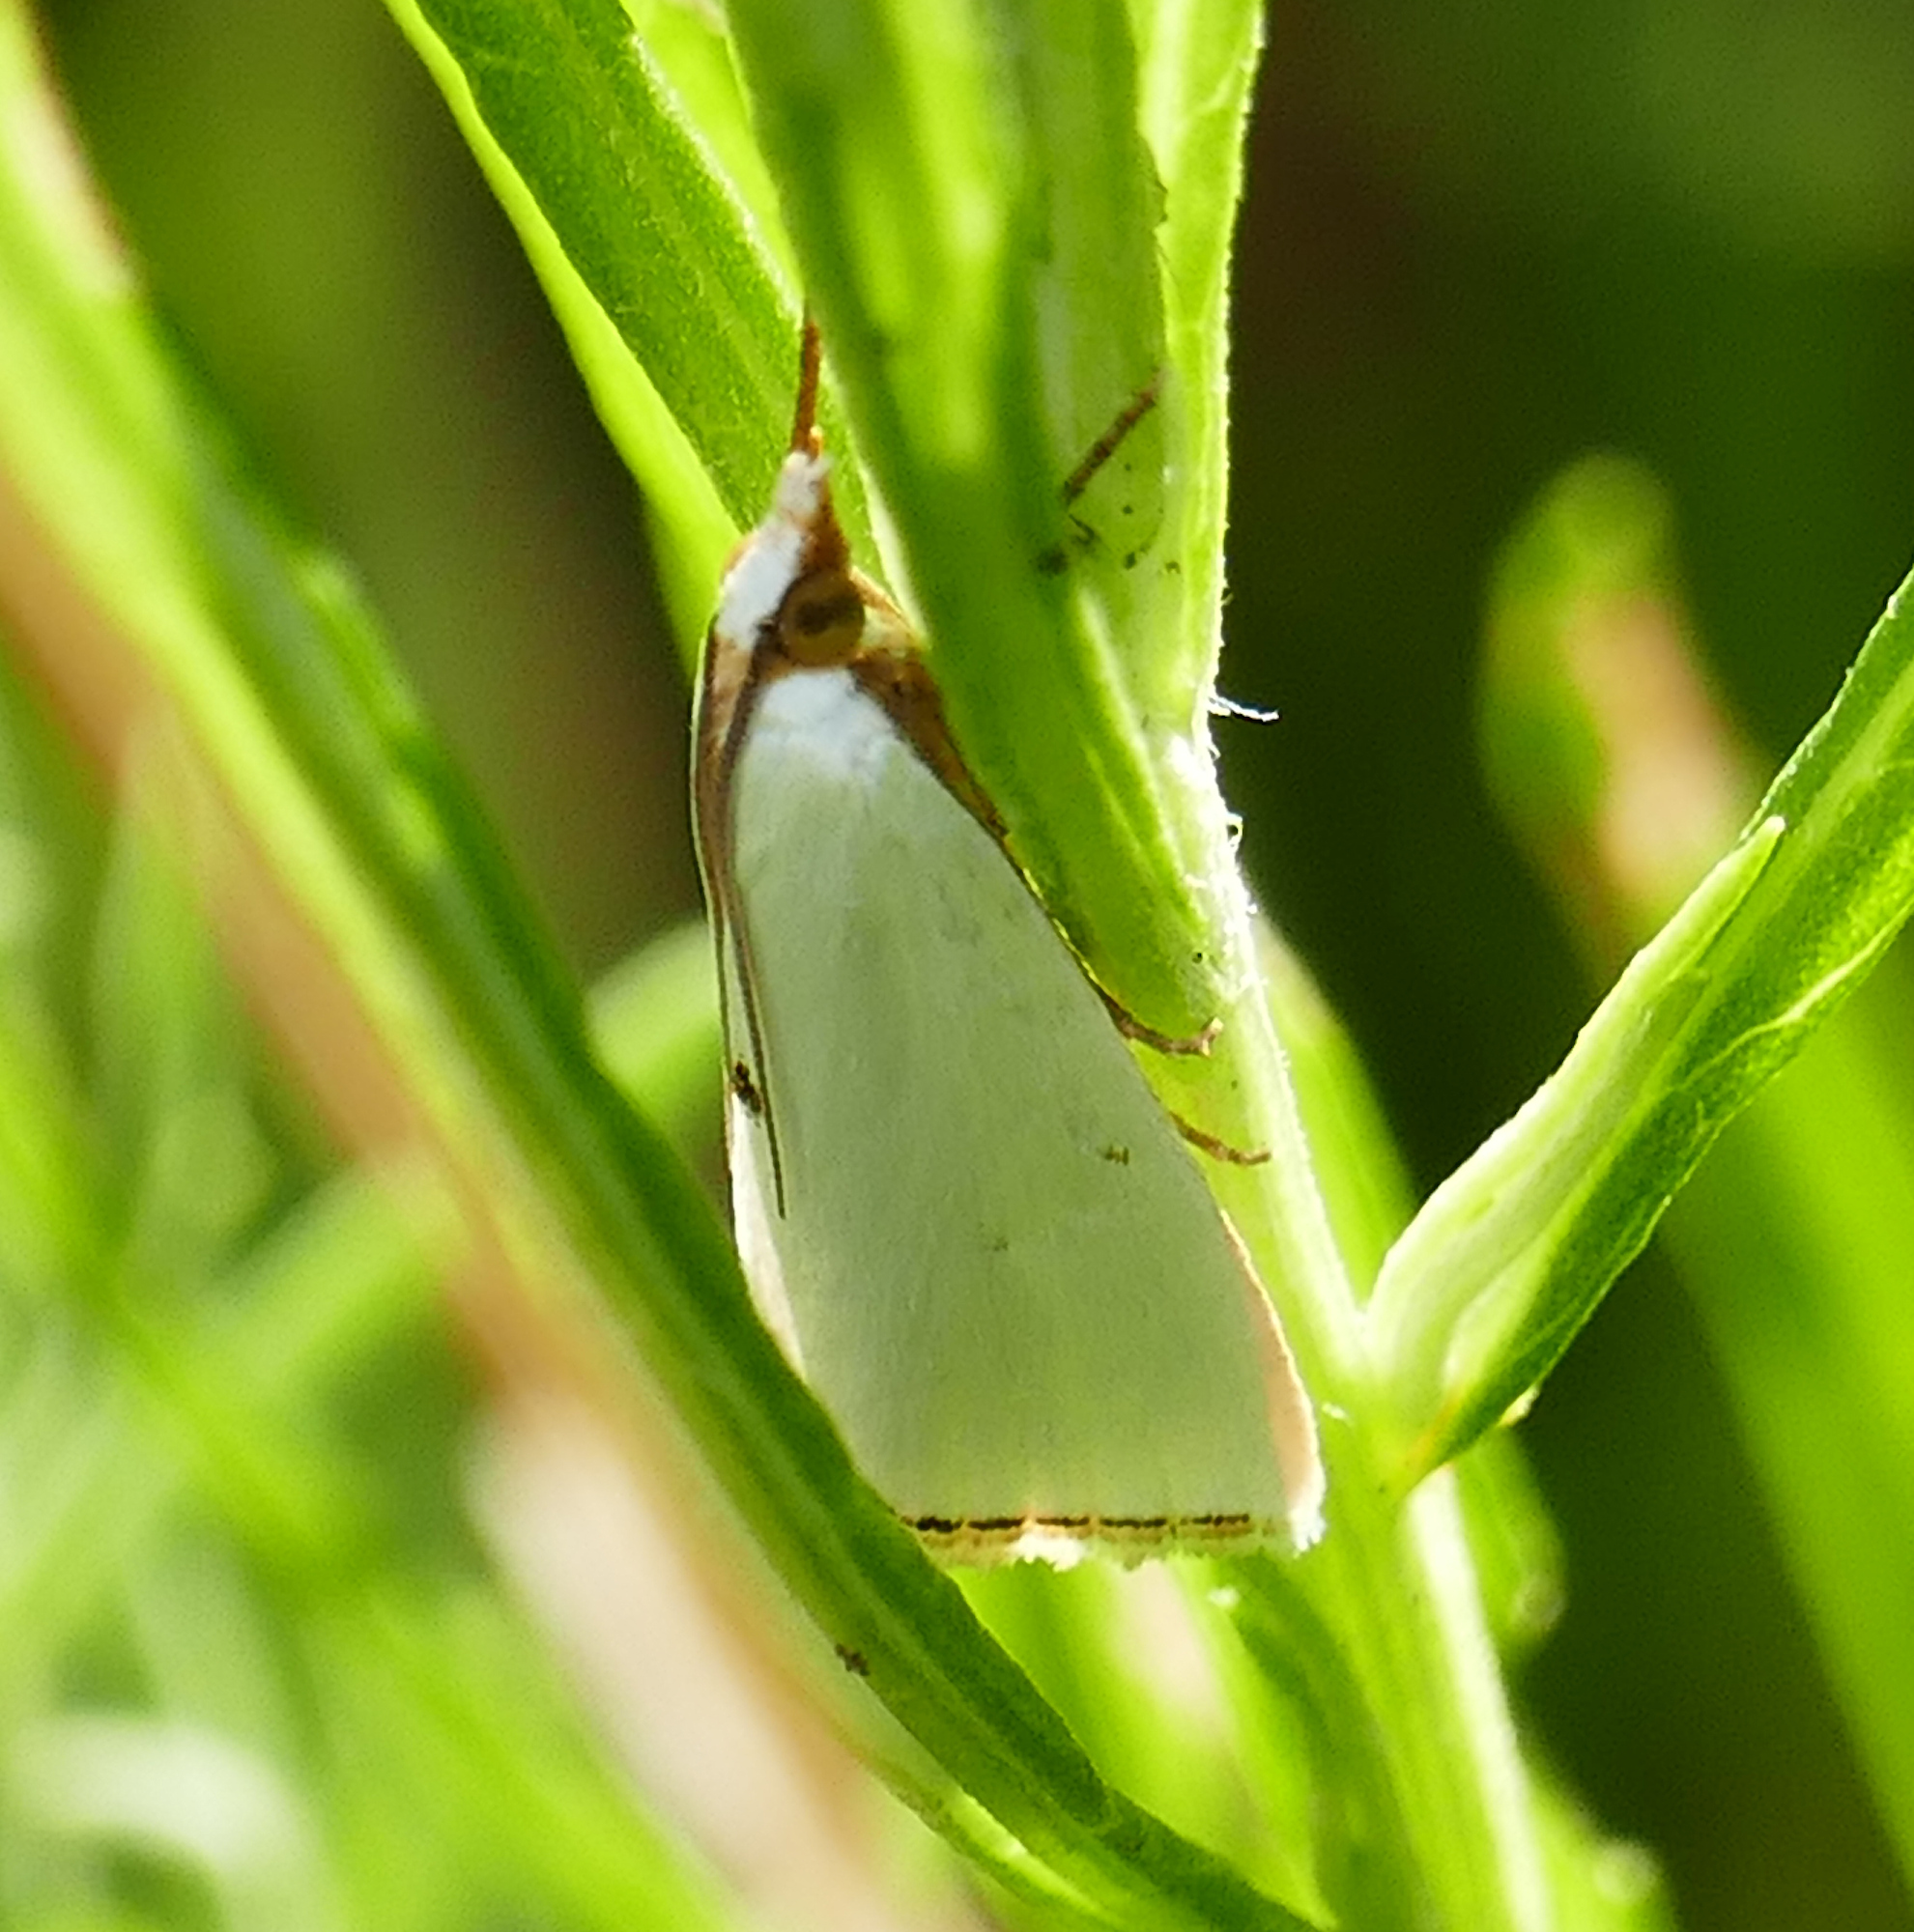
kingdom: Animalia
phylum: Arthropoda
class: Insecta
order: Lepidoptera
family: Crambidae
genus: Argyria
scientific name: Argyria nivalis
